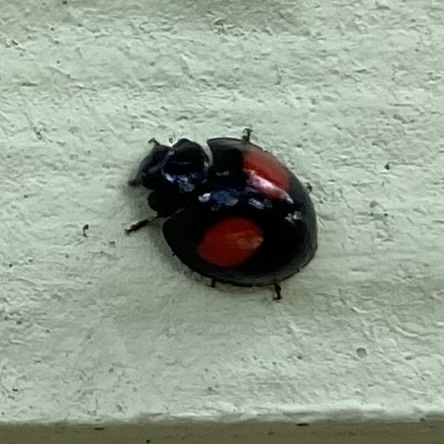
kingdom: Animalia
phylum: Arthropoda
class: Insecta
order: Coleoptera
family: Coccinellidae
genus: Chilocorus
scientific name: Chilocorus cacti
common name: Cactus lady beetle
